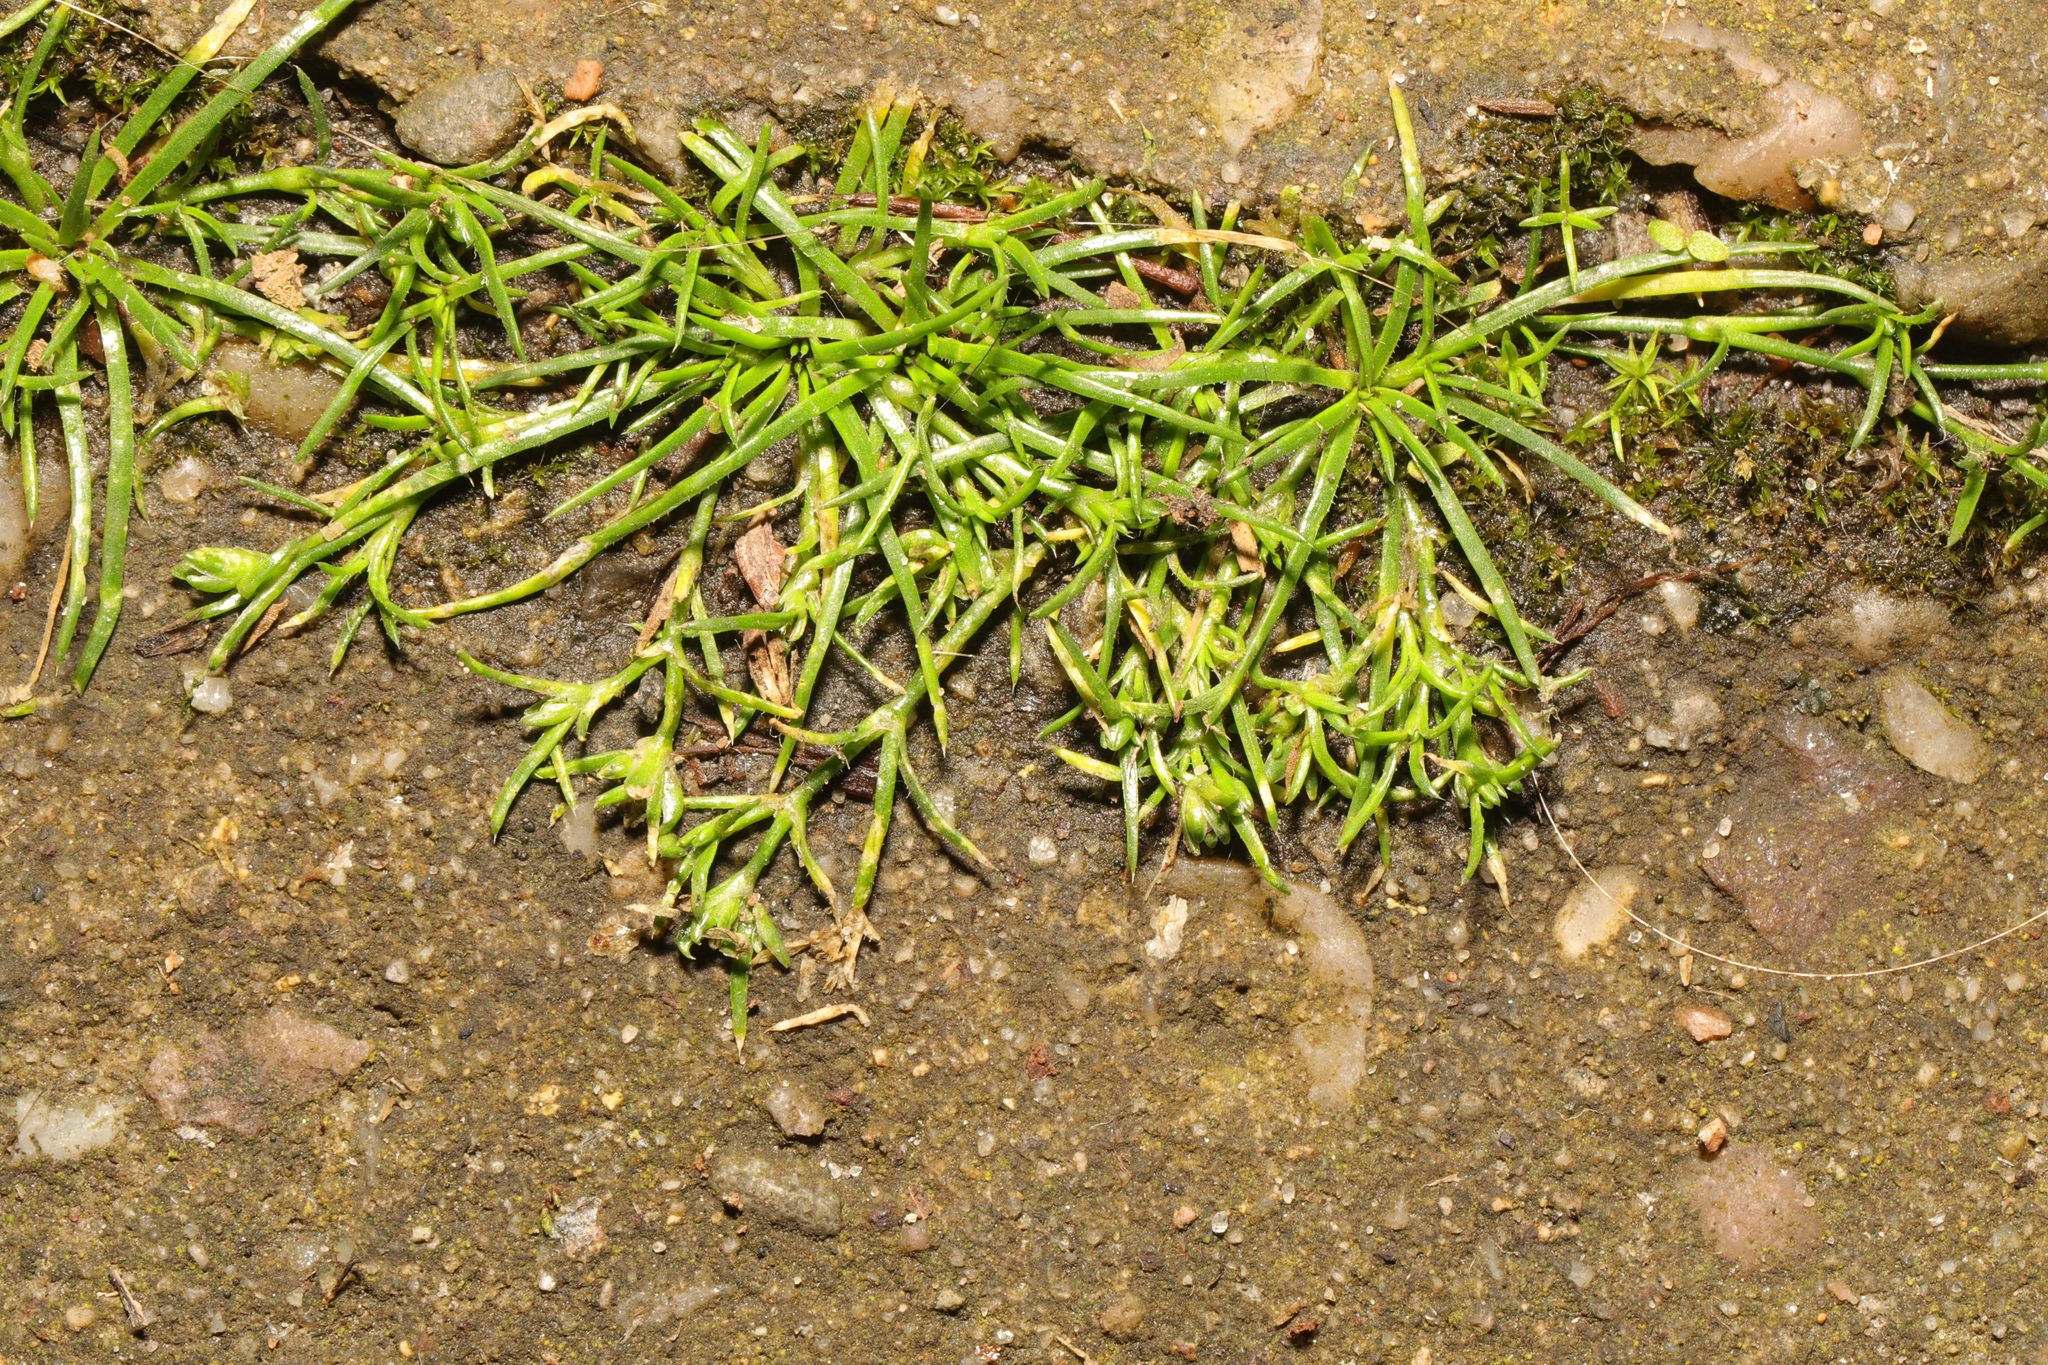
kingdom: Plantae
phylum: Tracheophyta
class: Magnoliopsida
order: Caryophyllales
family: Caryophyllaceae
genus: Sagina
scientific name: Sagina procumbens
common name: Procumbent pearlwort
